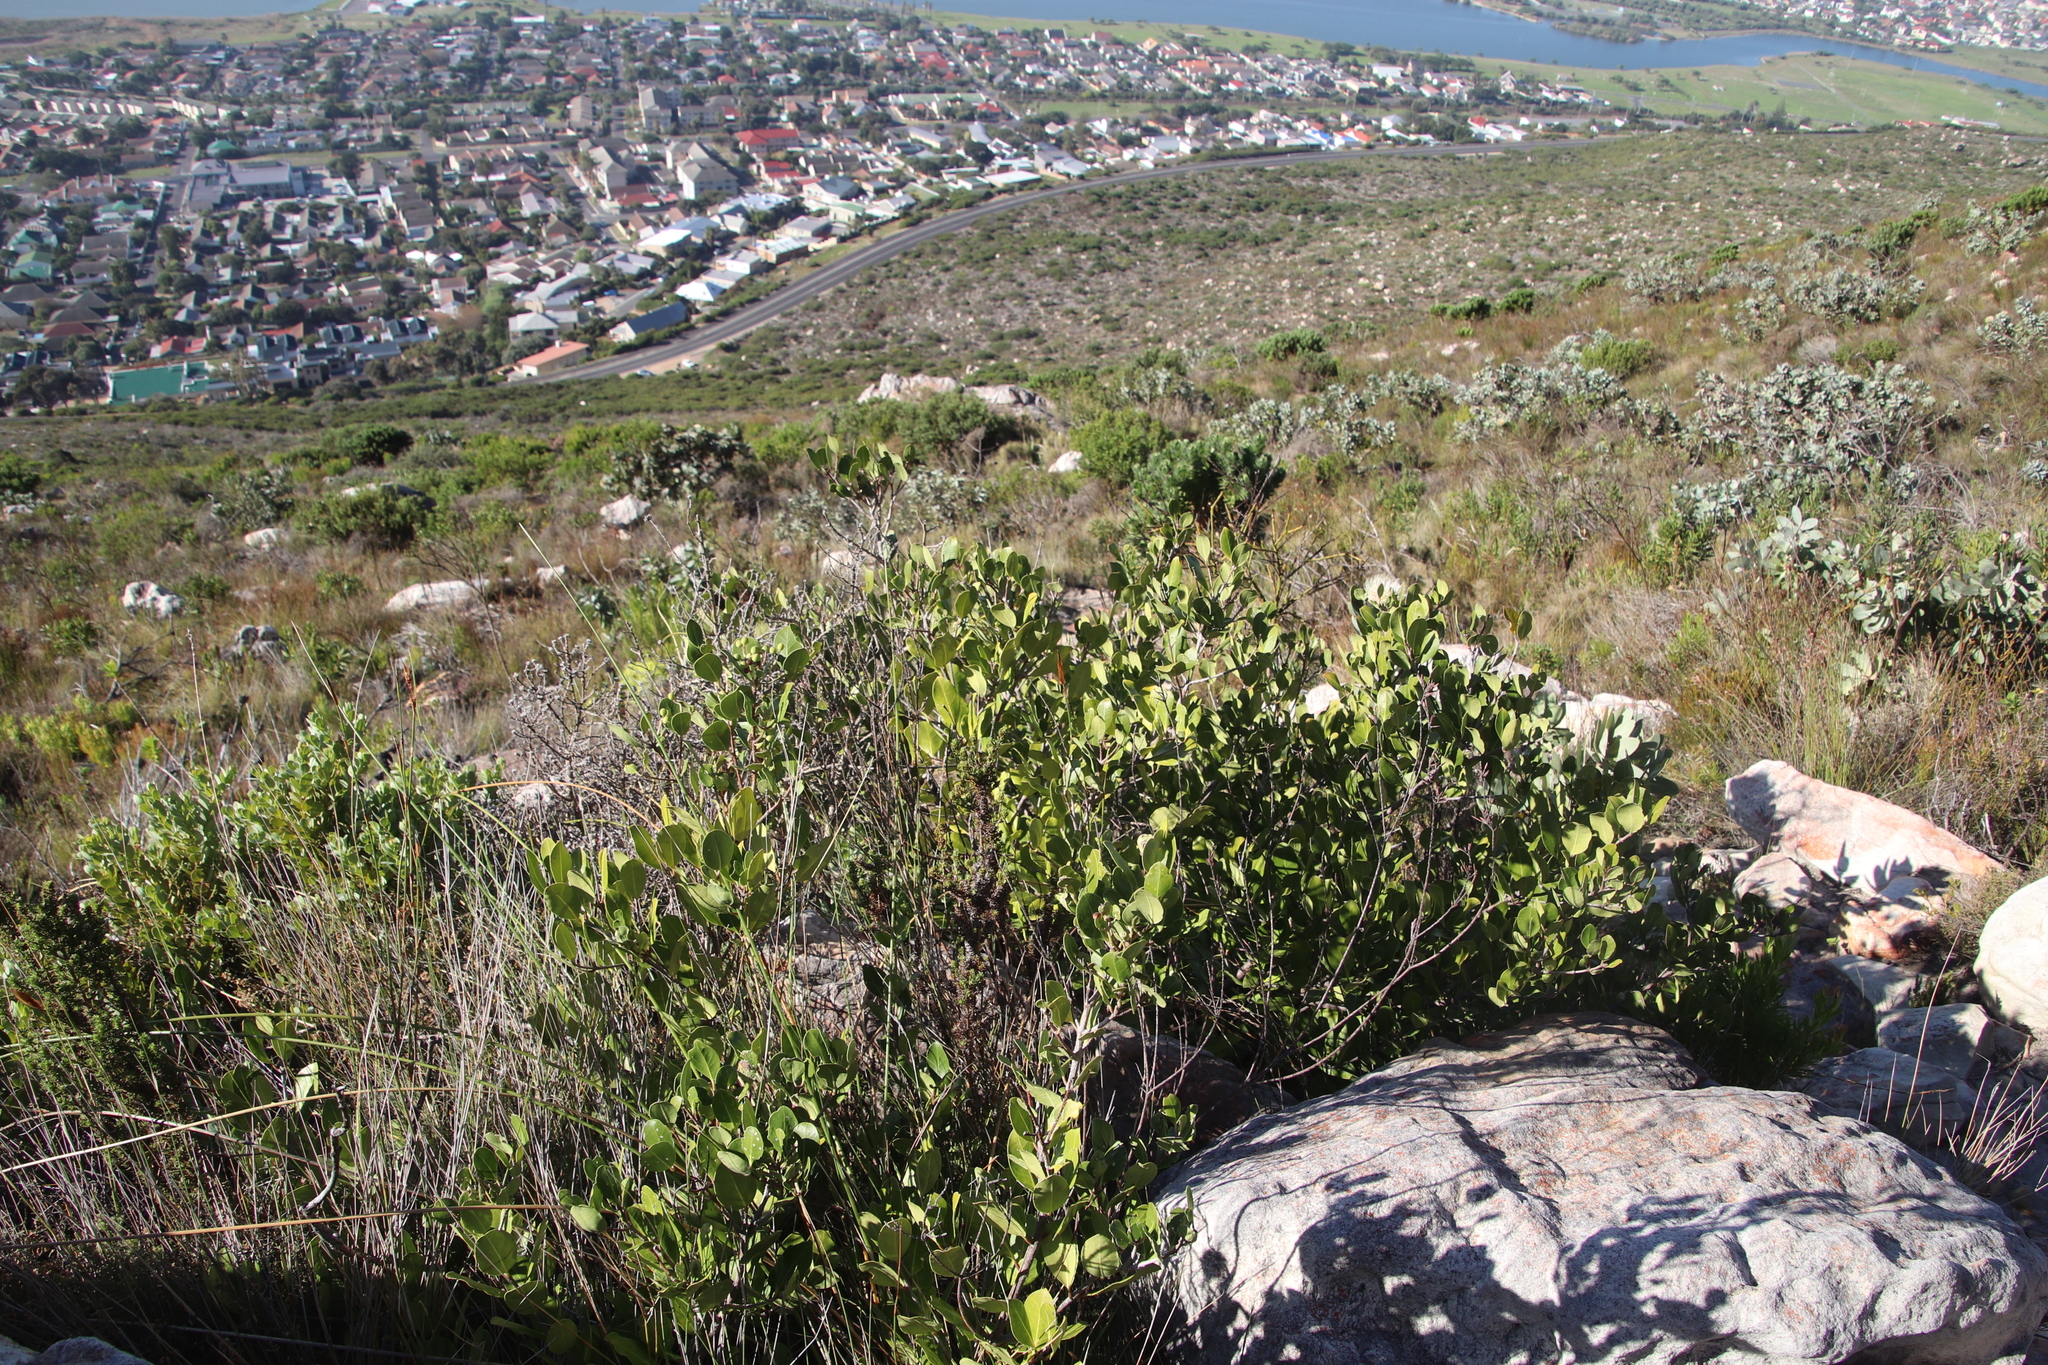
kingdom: Plantae
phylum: Tracheophyta
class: Magnoliopsida
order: Lamiales
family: Oleaceae
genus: Olea
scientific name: Olea capensis
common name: Black ironwood
